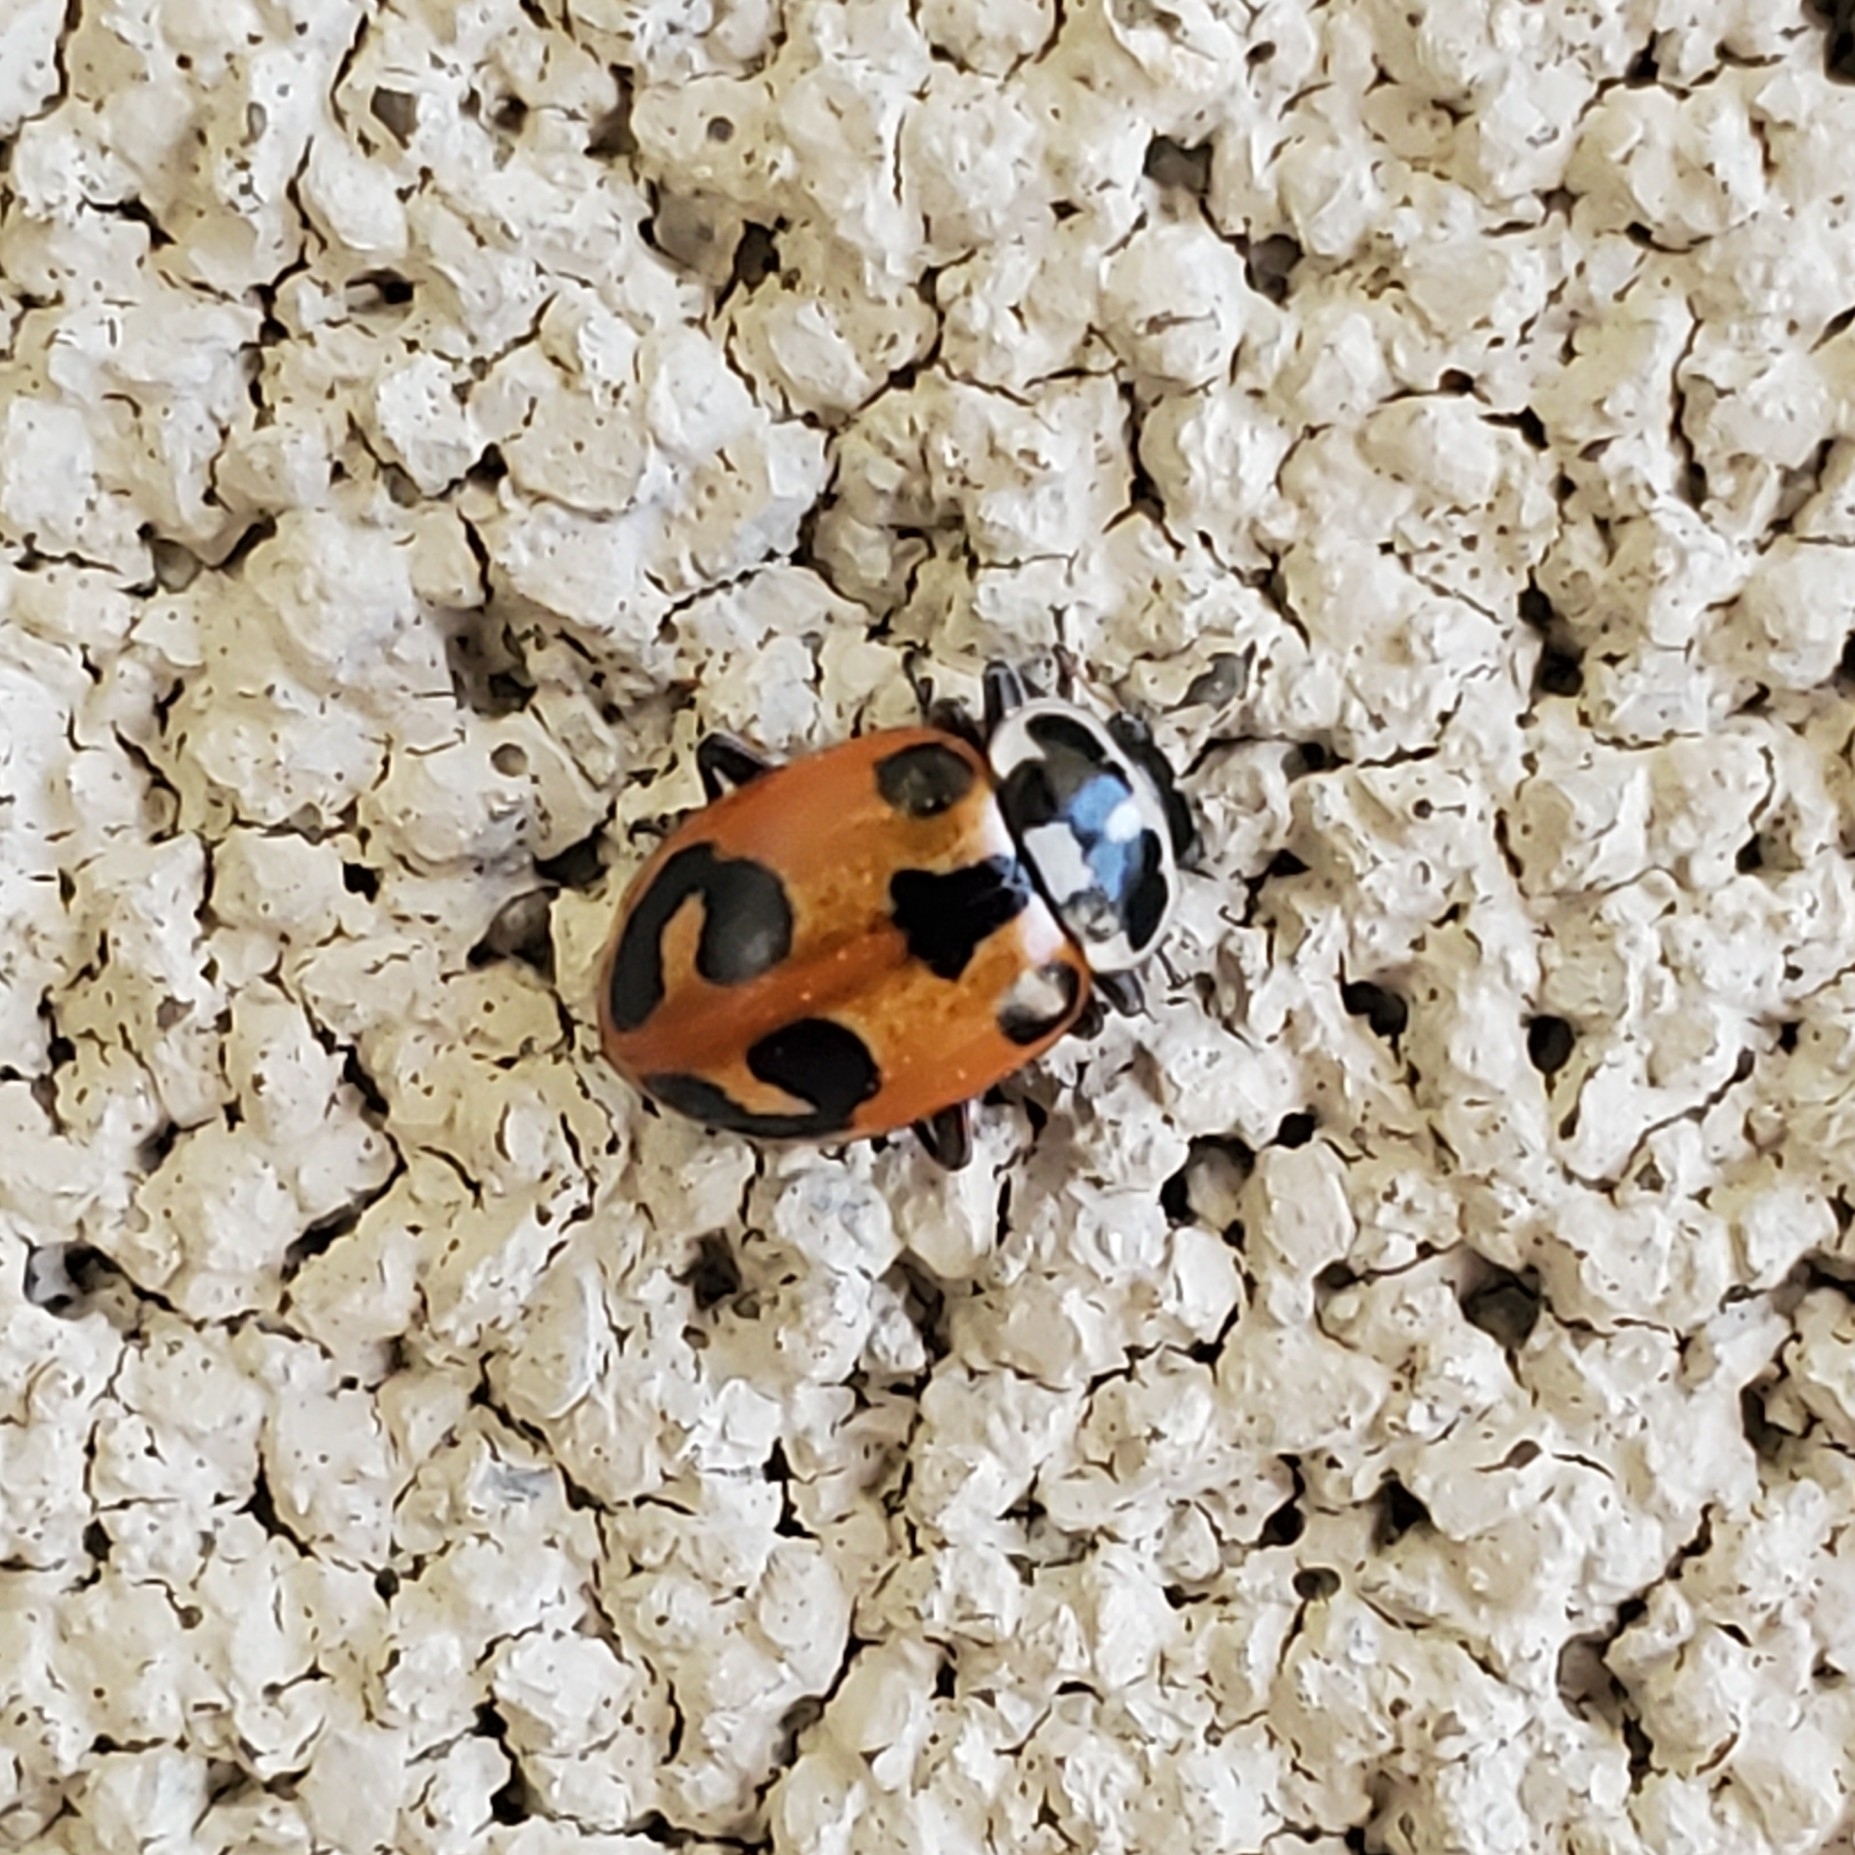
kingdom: Animalia
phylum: Arthropoda
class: Insecta
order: Coleoptera
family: Coccinellidae
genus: Hippodamia
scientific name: Hippodamia parenthesis
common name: Parenthesis lady beetle
